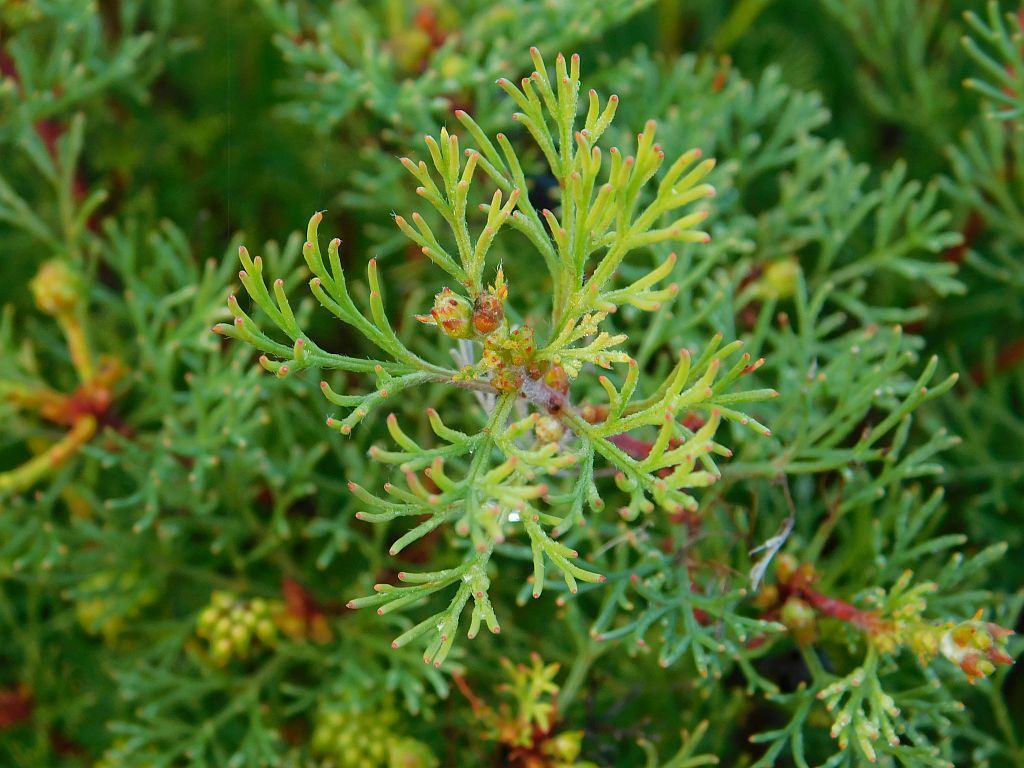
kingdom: Plantae
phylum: Tracheophyta
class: Magnoliopsida
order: Proteales
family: Proteaceae
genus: Serruria
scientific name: Serruria
